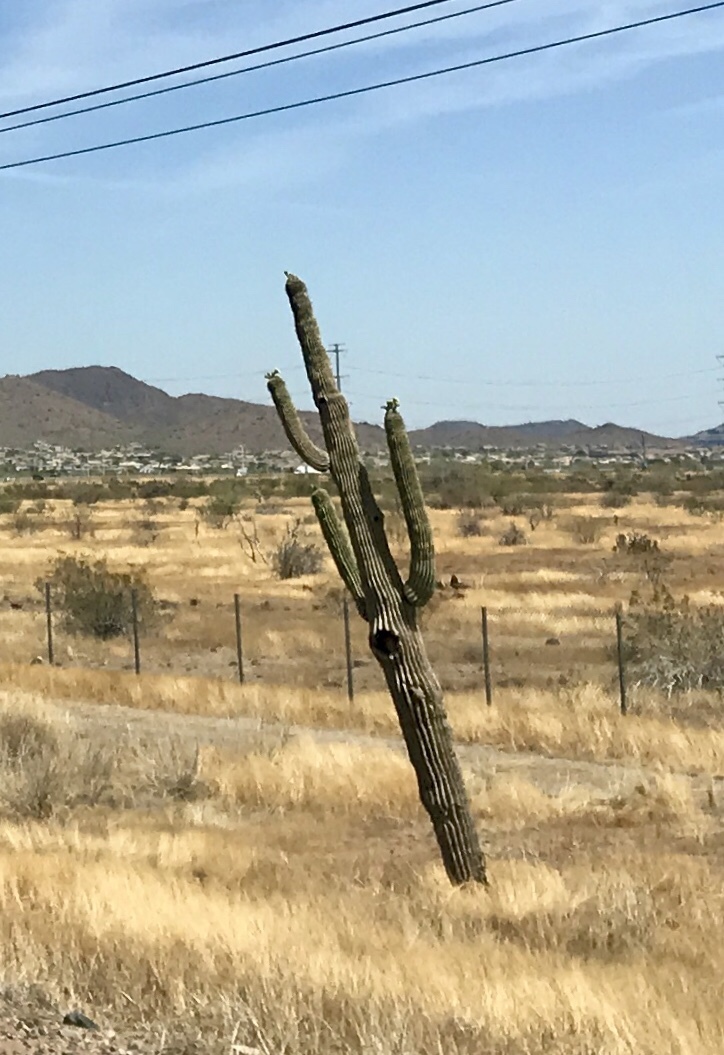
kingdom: Plantae
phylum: Tracheophyta
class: Magnoliopsida
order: Caryophyllales
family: Cactaceae
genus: Carnegiea
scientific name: Carnegiea gigantea
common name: Saguaro
